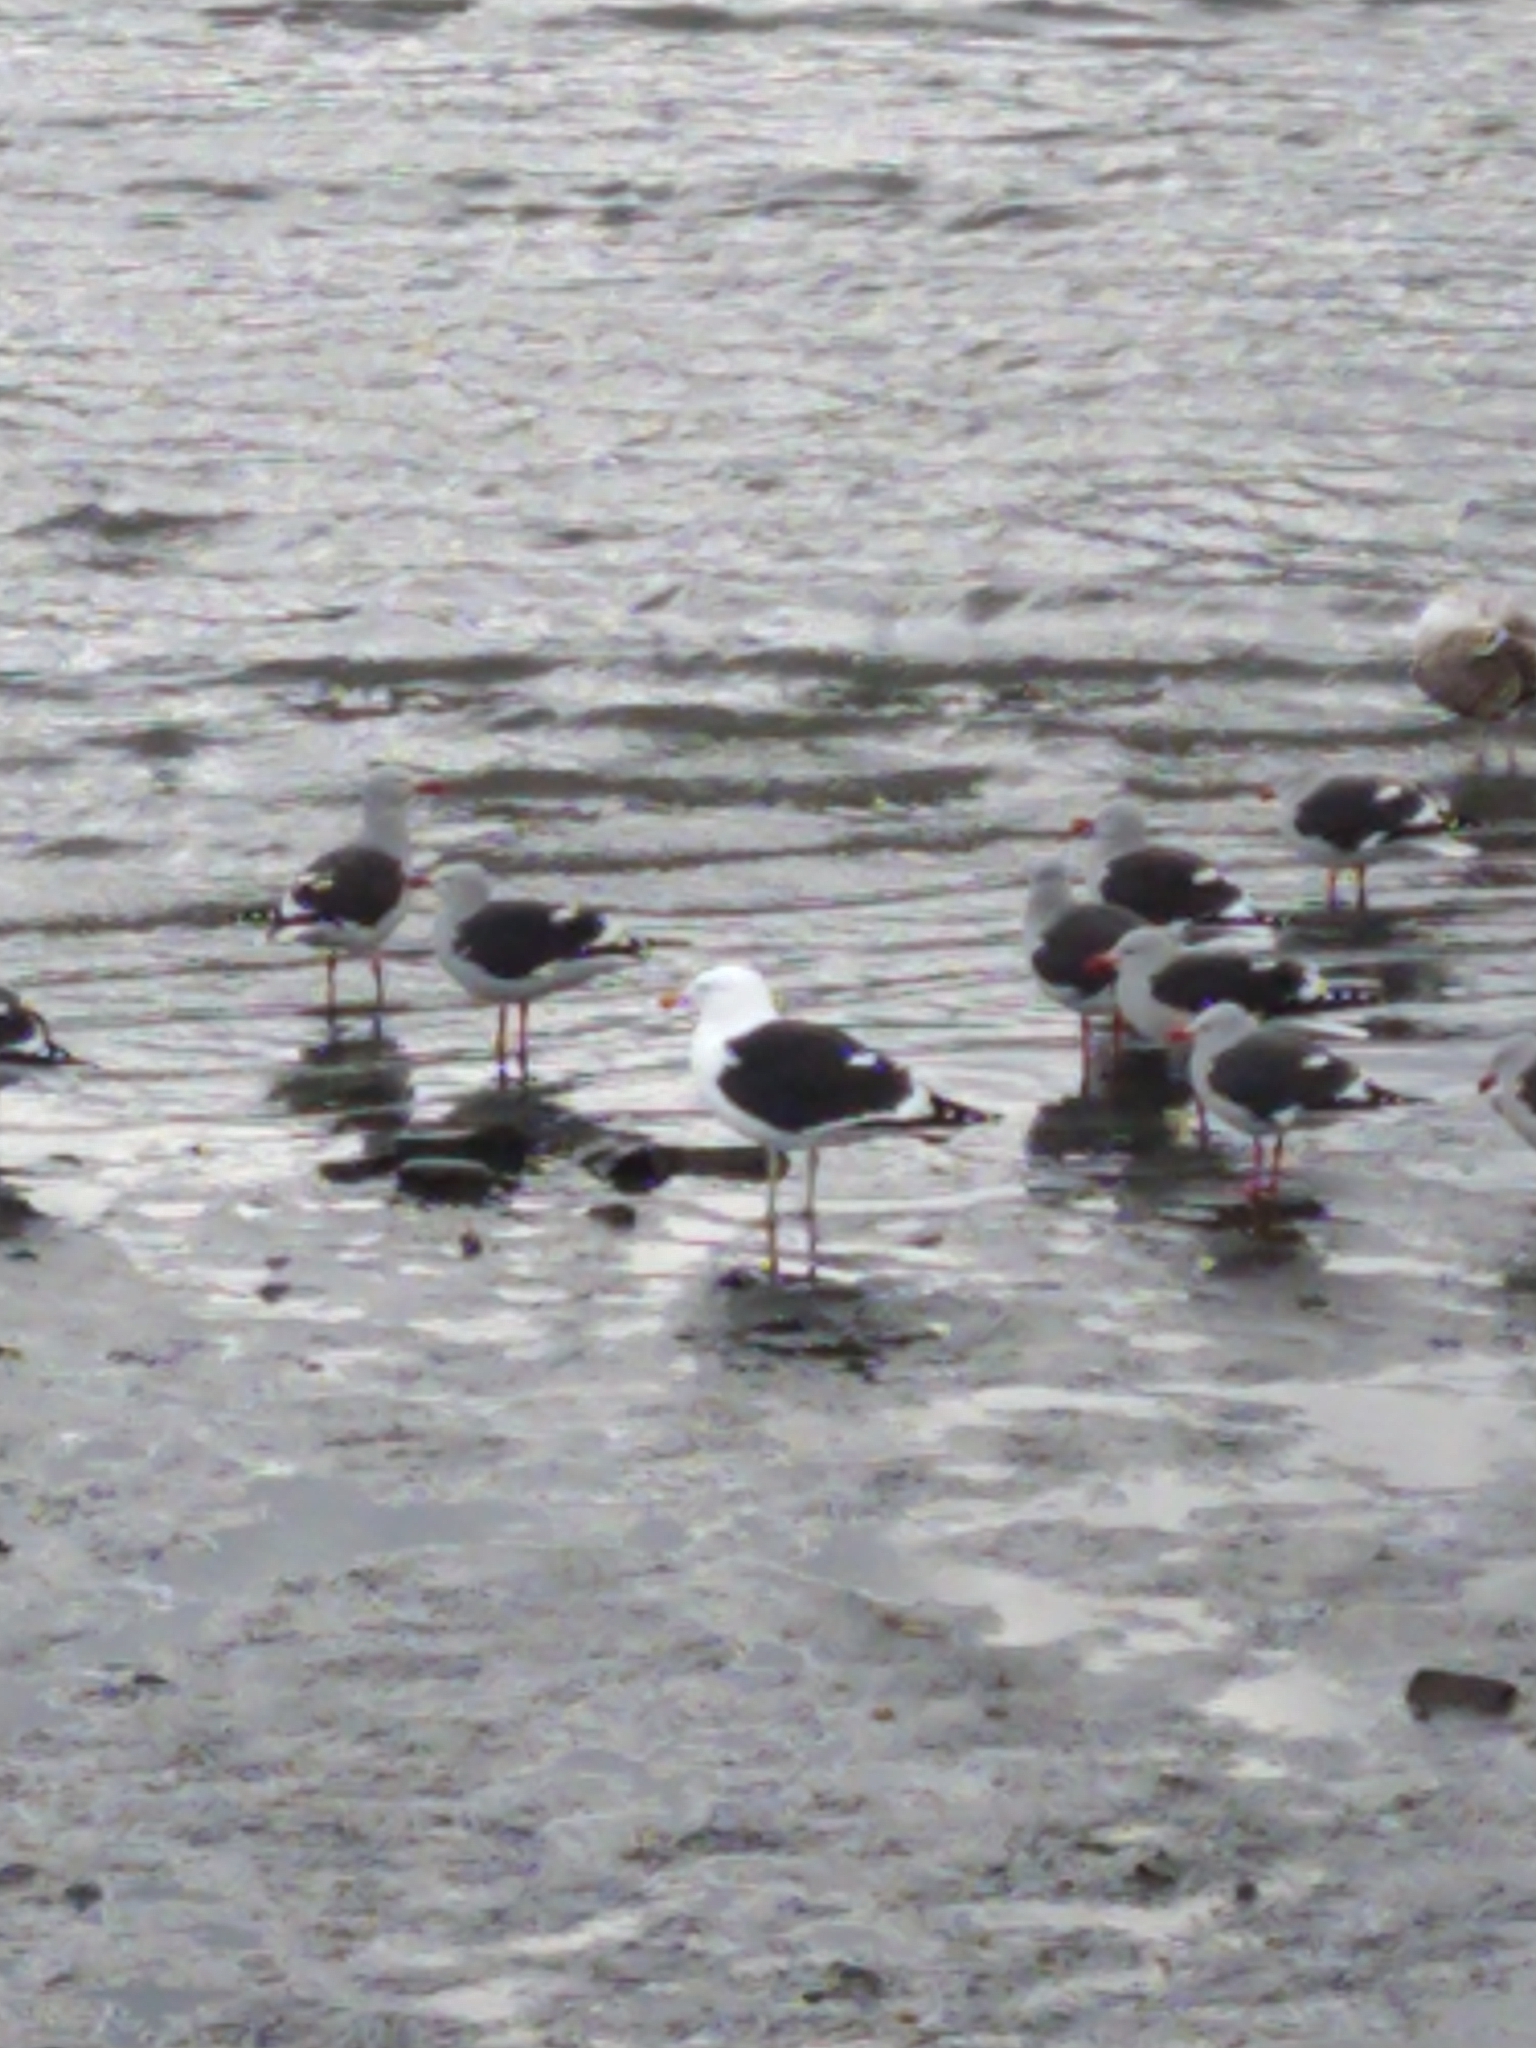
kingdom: Animalia
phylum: Chordata
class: Aves
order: Charadriiformes
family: Laridae
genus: Larus
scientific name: Larus dominicanus
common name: Kelp gull
